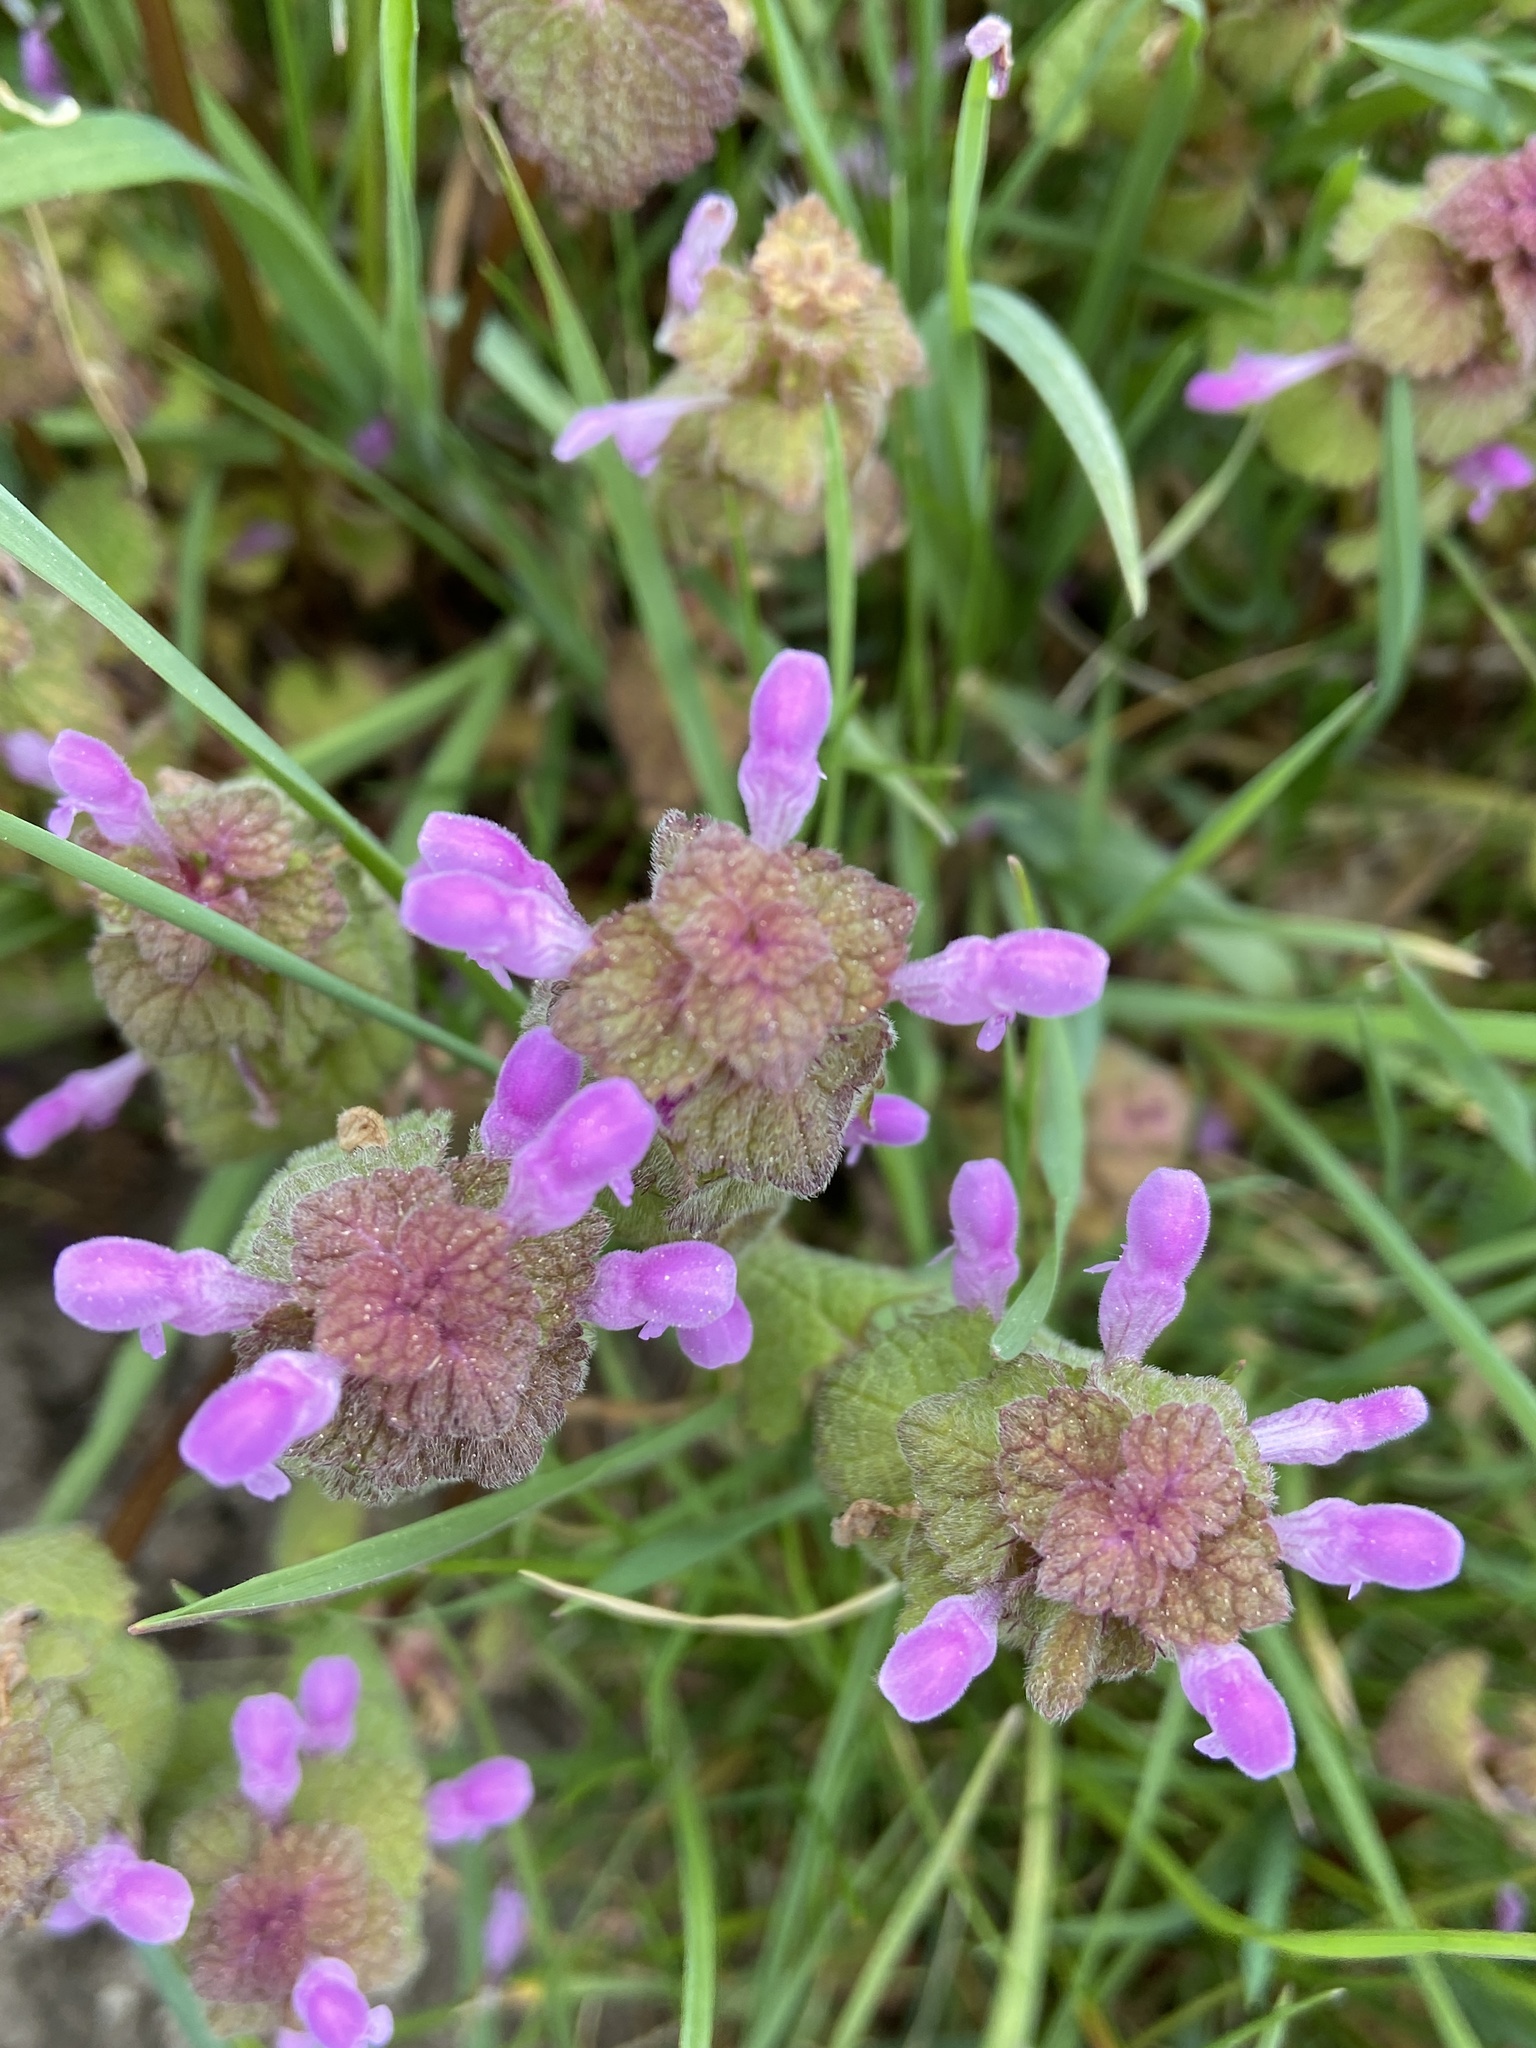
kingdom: Plantae
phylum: Tracheophyta
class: Magnoliopsida
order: Lamiales
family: Lamiaceae
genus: Lamium
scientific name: Lamium purpureum
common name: Red dead-nettle
